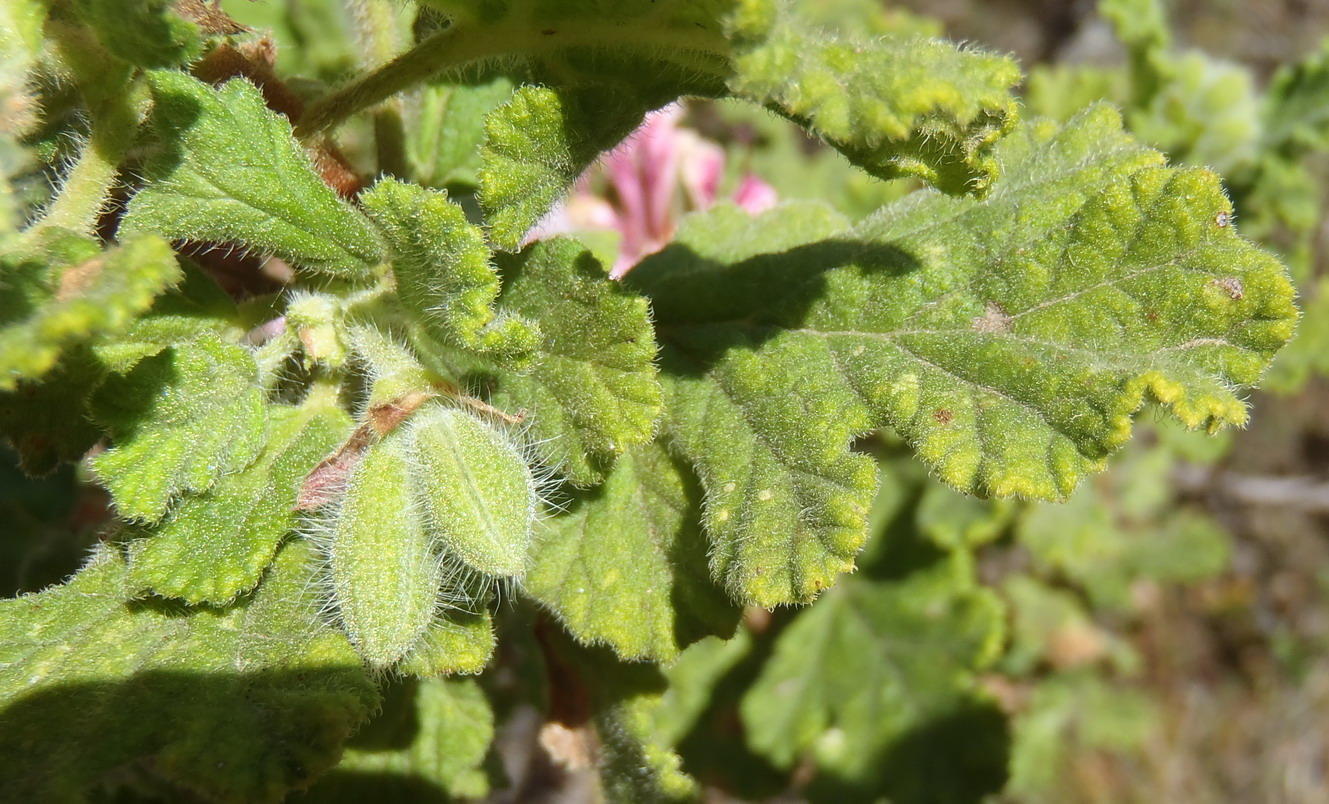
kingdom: Plantae
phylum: Tracheophyta
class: Magnoliopsida
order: Geraniales
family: Geraniaceae
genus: Pelargonium
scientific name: Pelargonium panduriforme
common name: Oakleaf garden geranium
